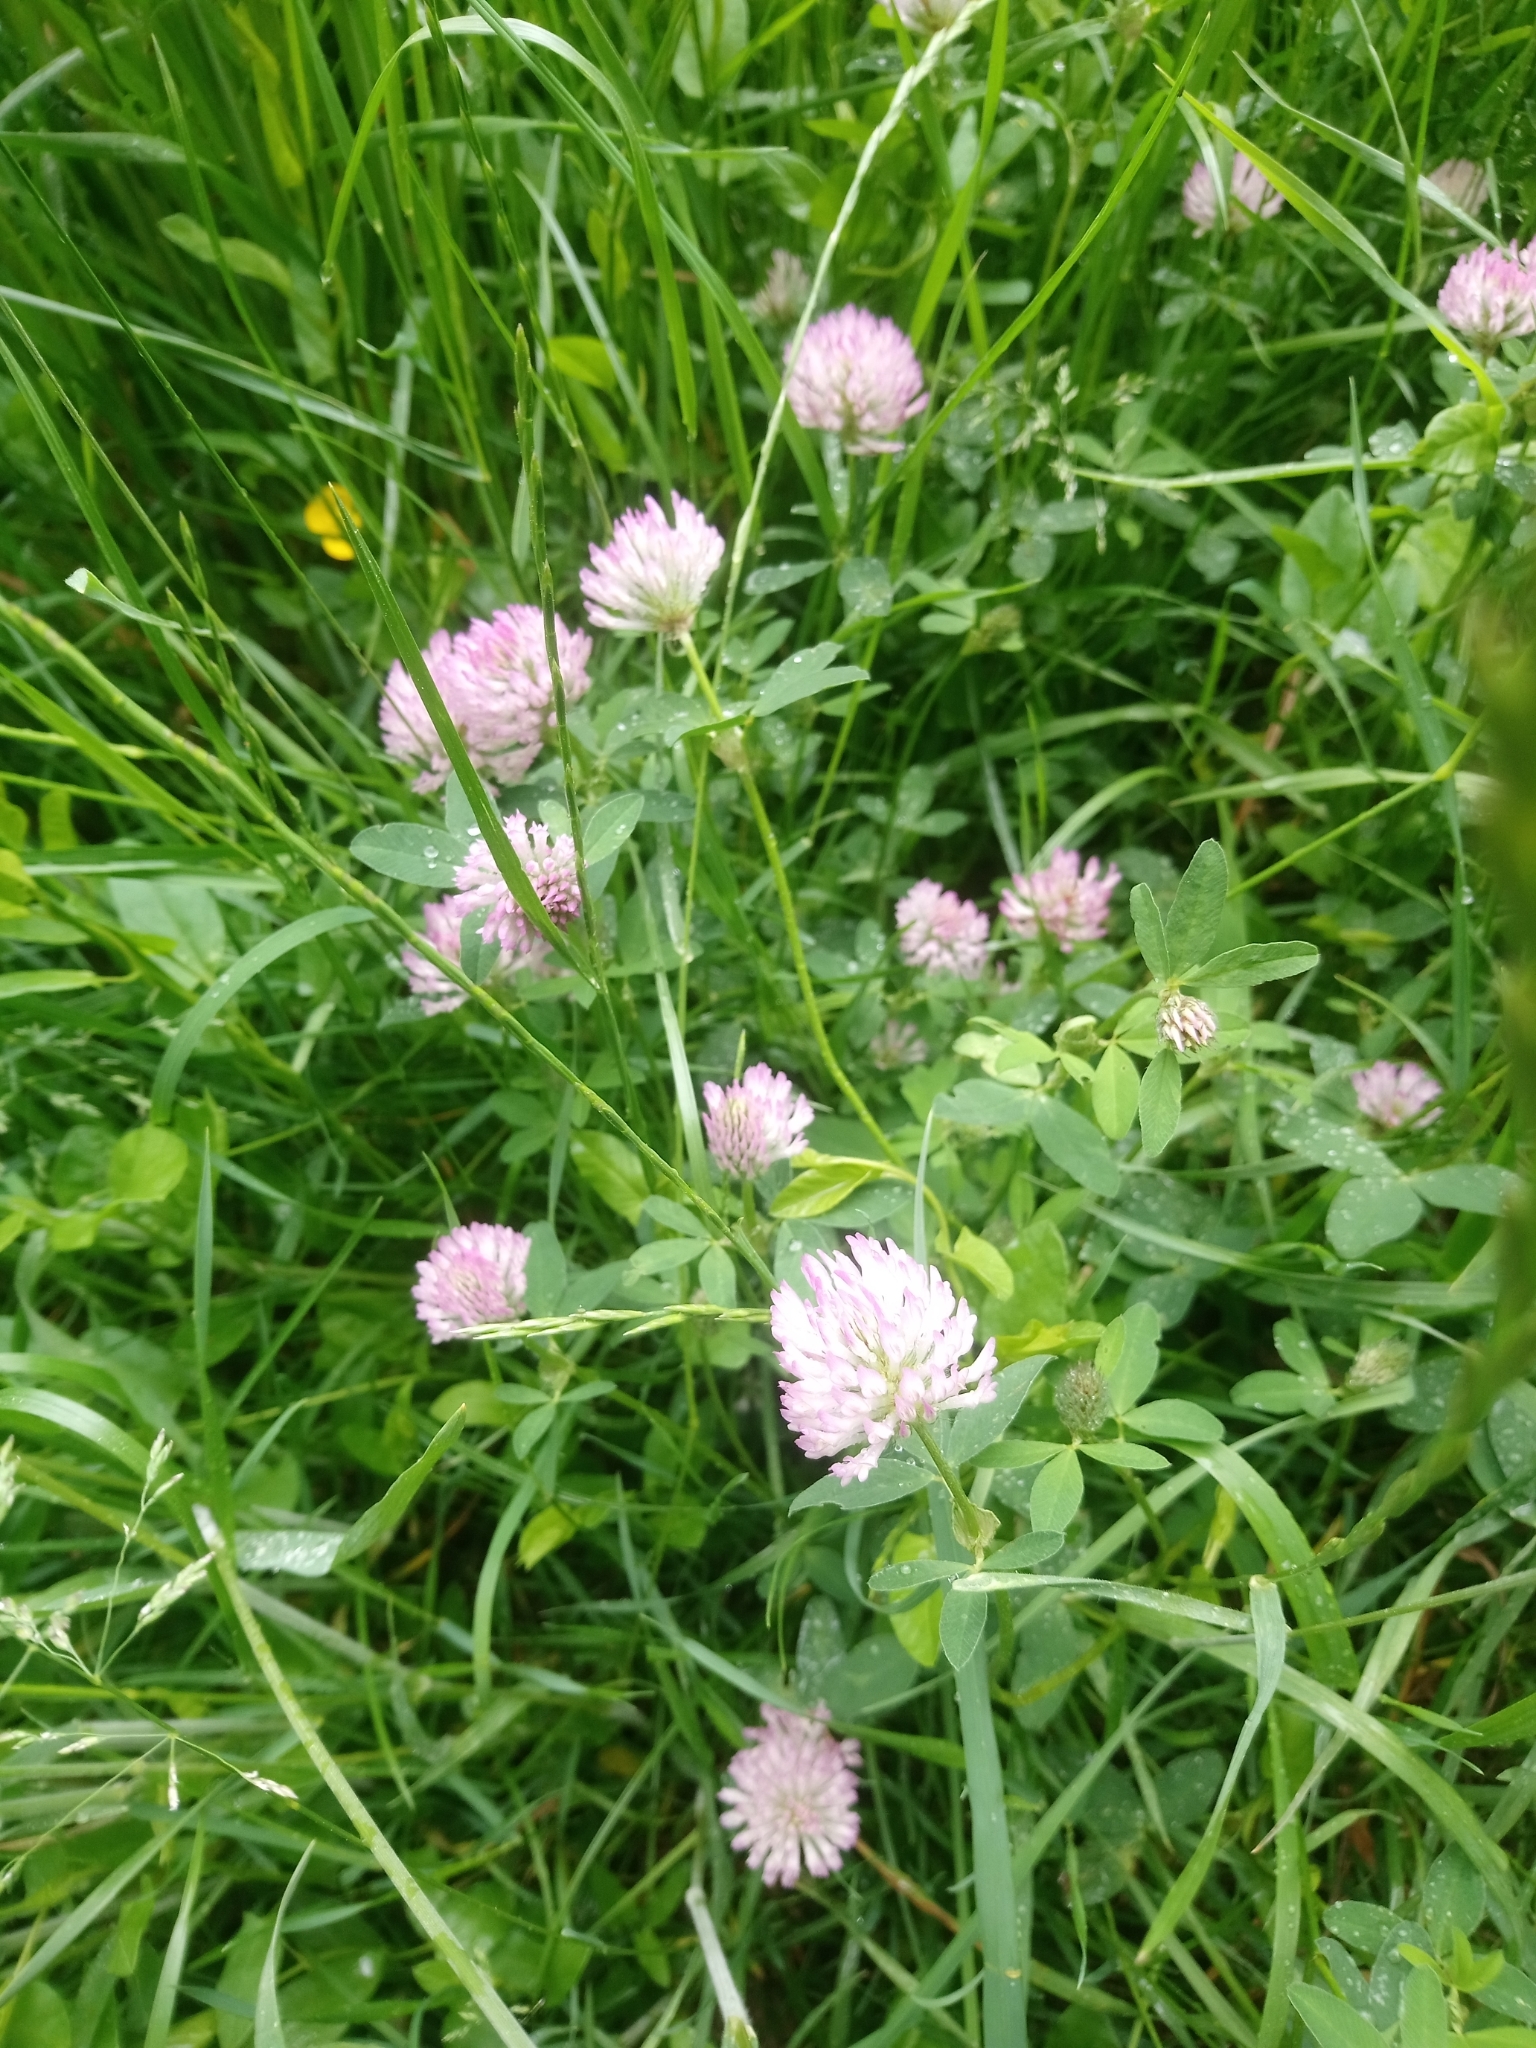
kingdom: Plantae
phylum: Tracheophyta
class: Magnoliopsida
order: Fabales
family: Fabaceae
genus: Trifolium
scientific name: Trifolium pratense
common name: Red clover
